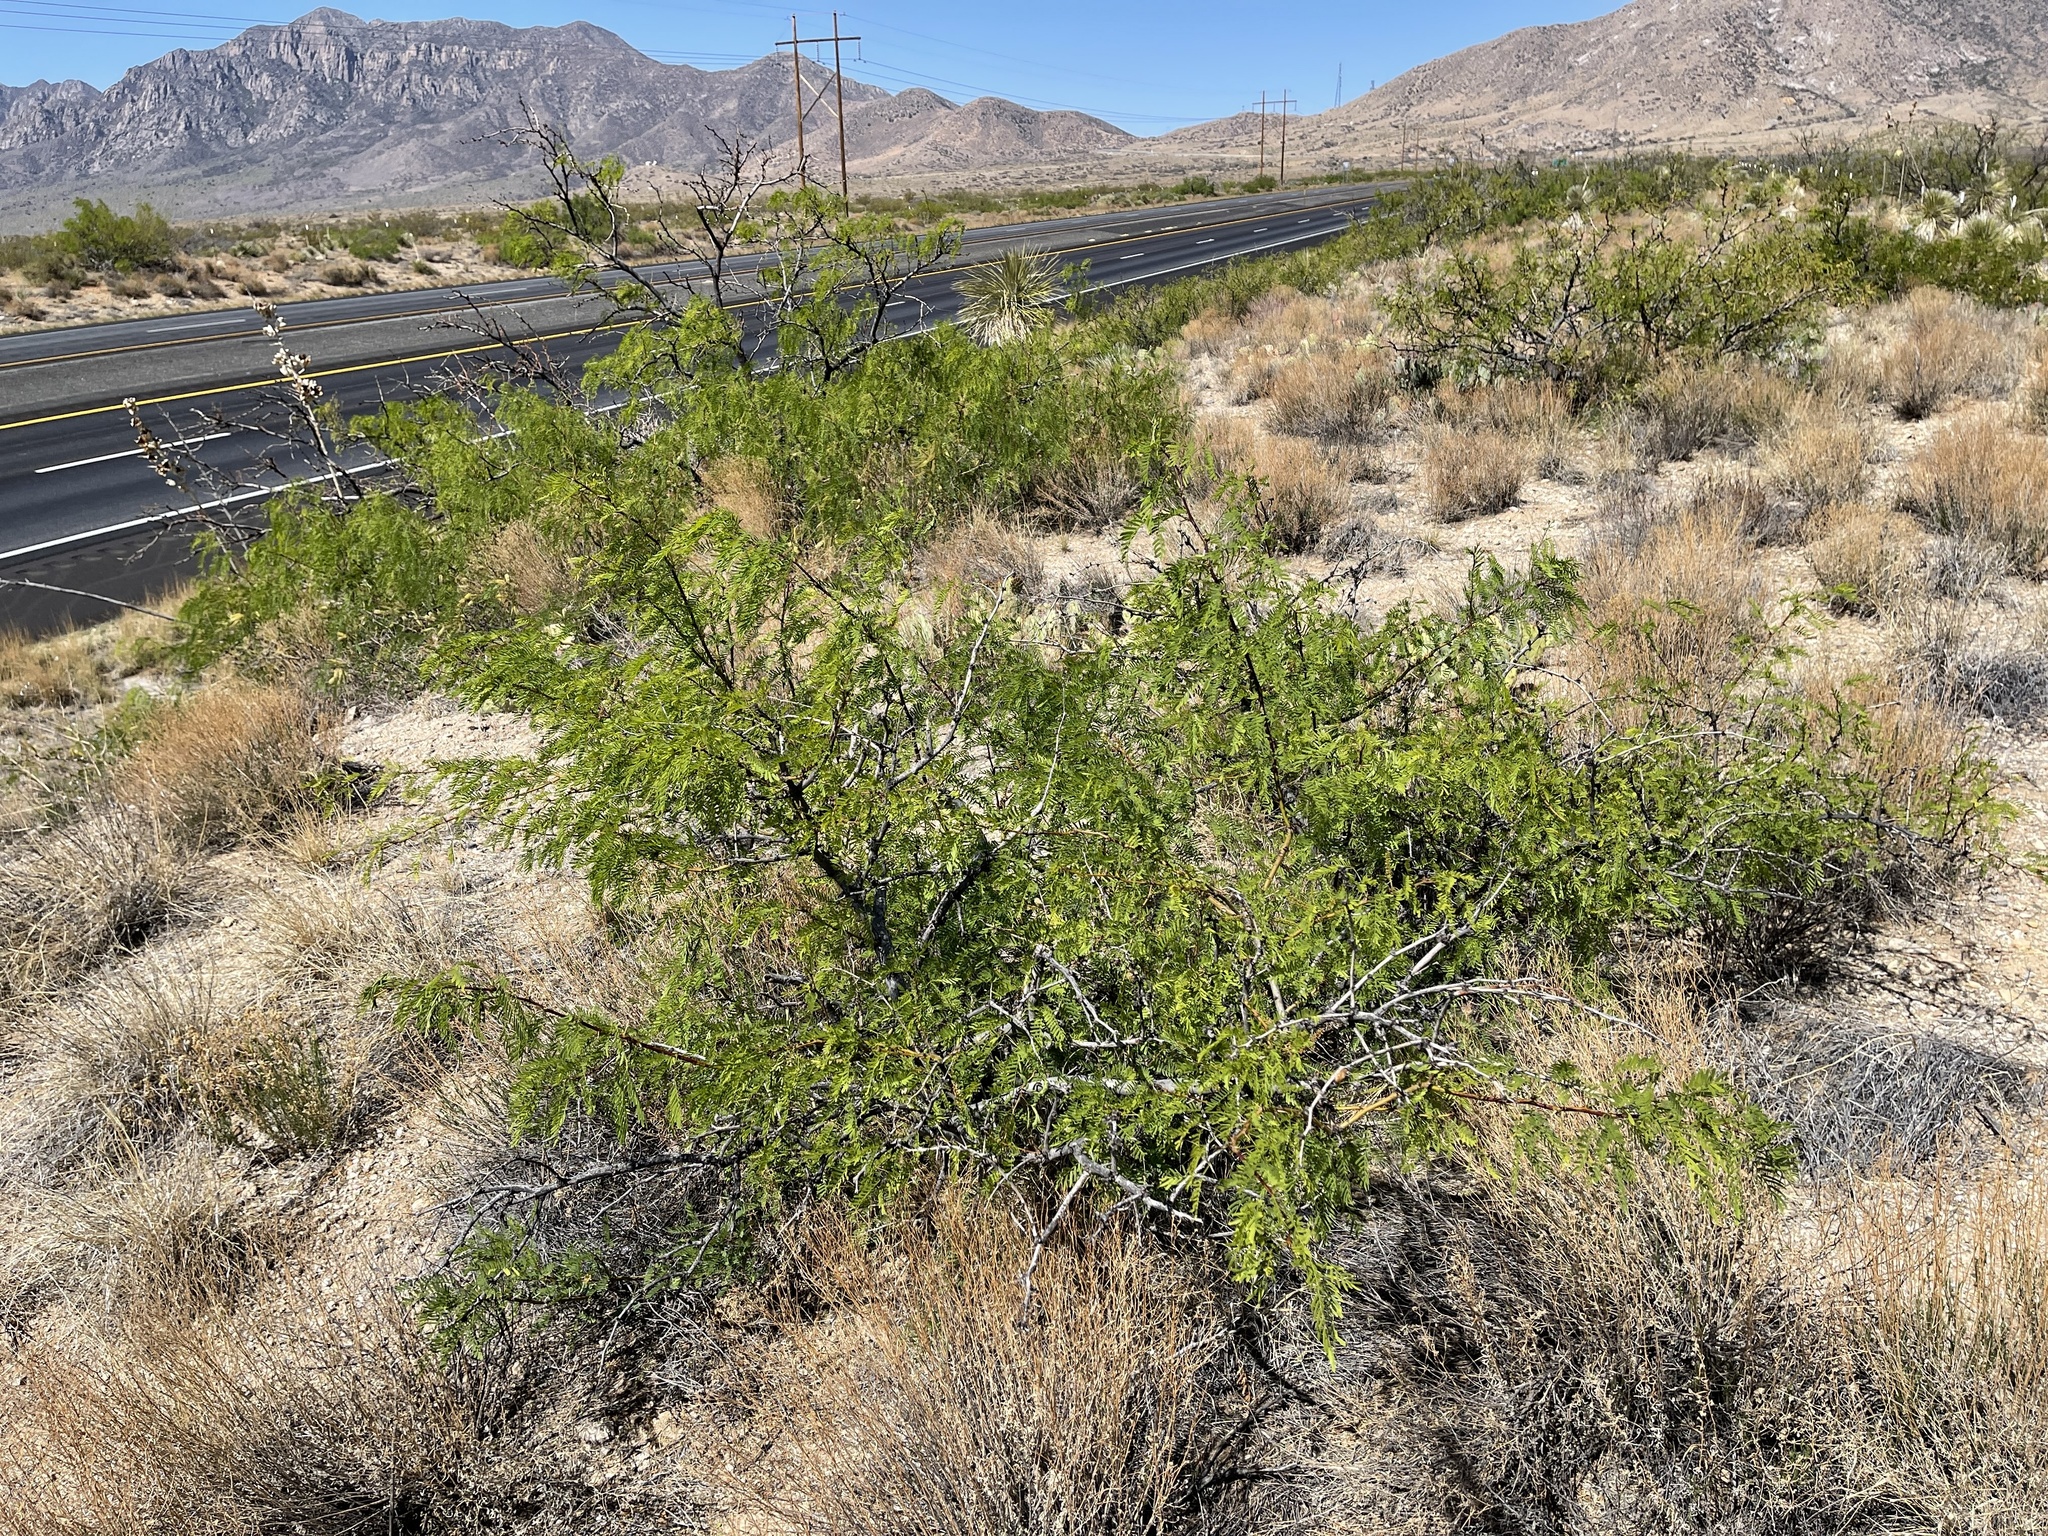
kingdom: Plantae
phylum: Tracheophyta
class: Magnoliopsida
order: Fabales
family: Fabaceae
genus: Prosopis
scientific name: Prosopis glandulosa
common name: Honey mesquite
